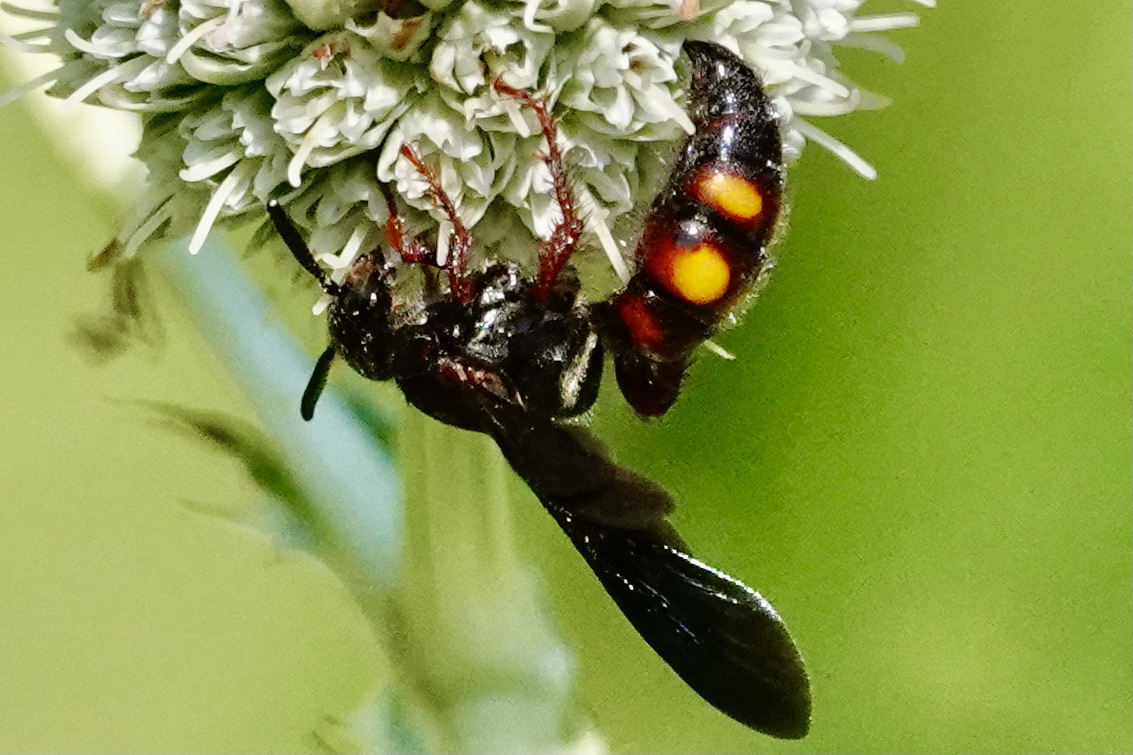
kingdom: Animalia
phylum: Arthropoda
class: Insecta
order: Hymenoptera
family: Scoliidae
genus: Scolia
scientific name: Scolia nobilitata
